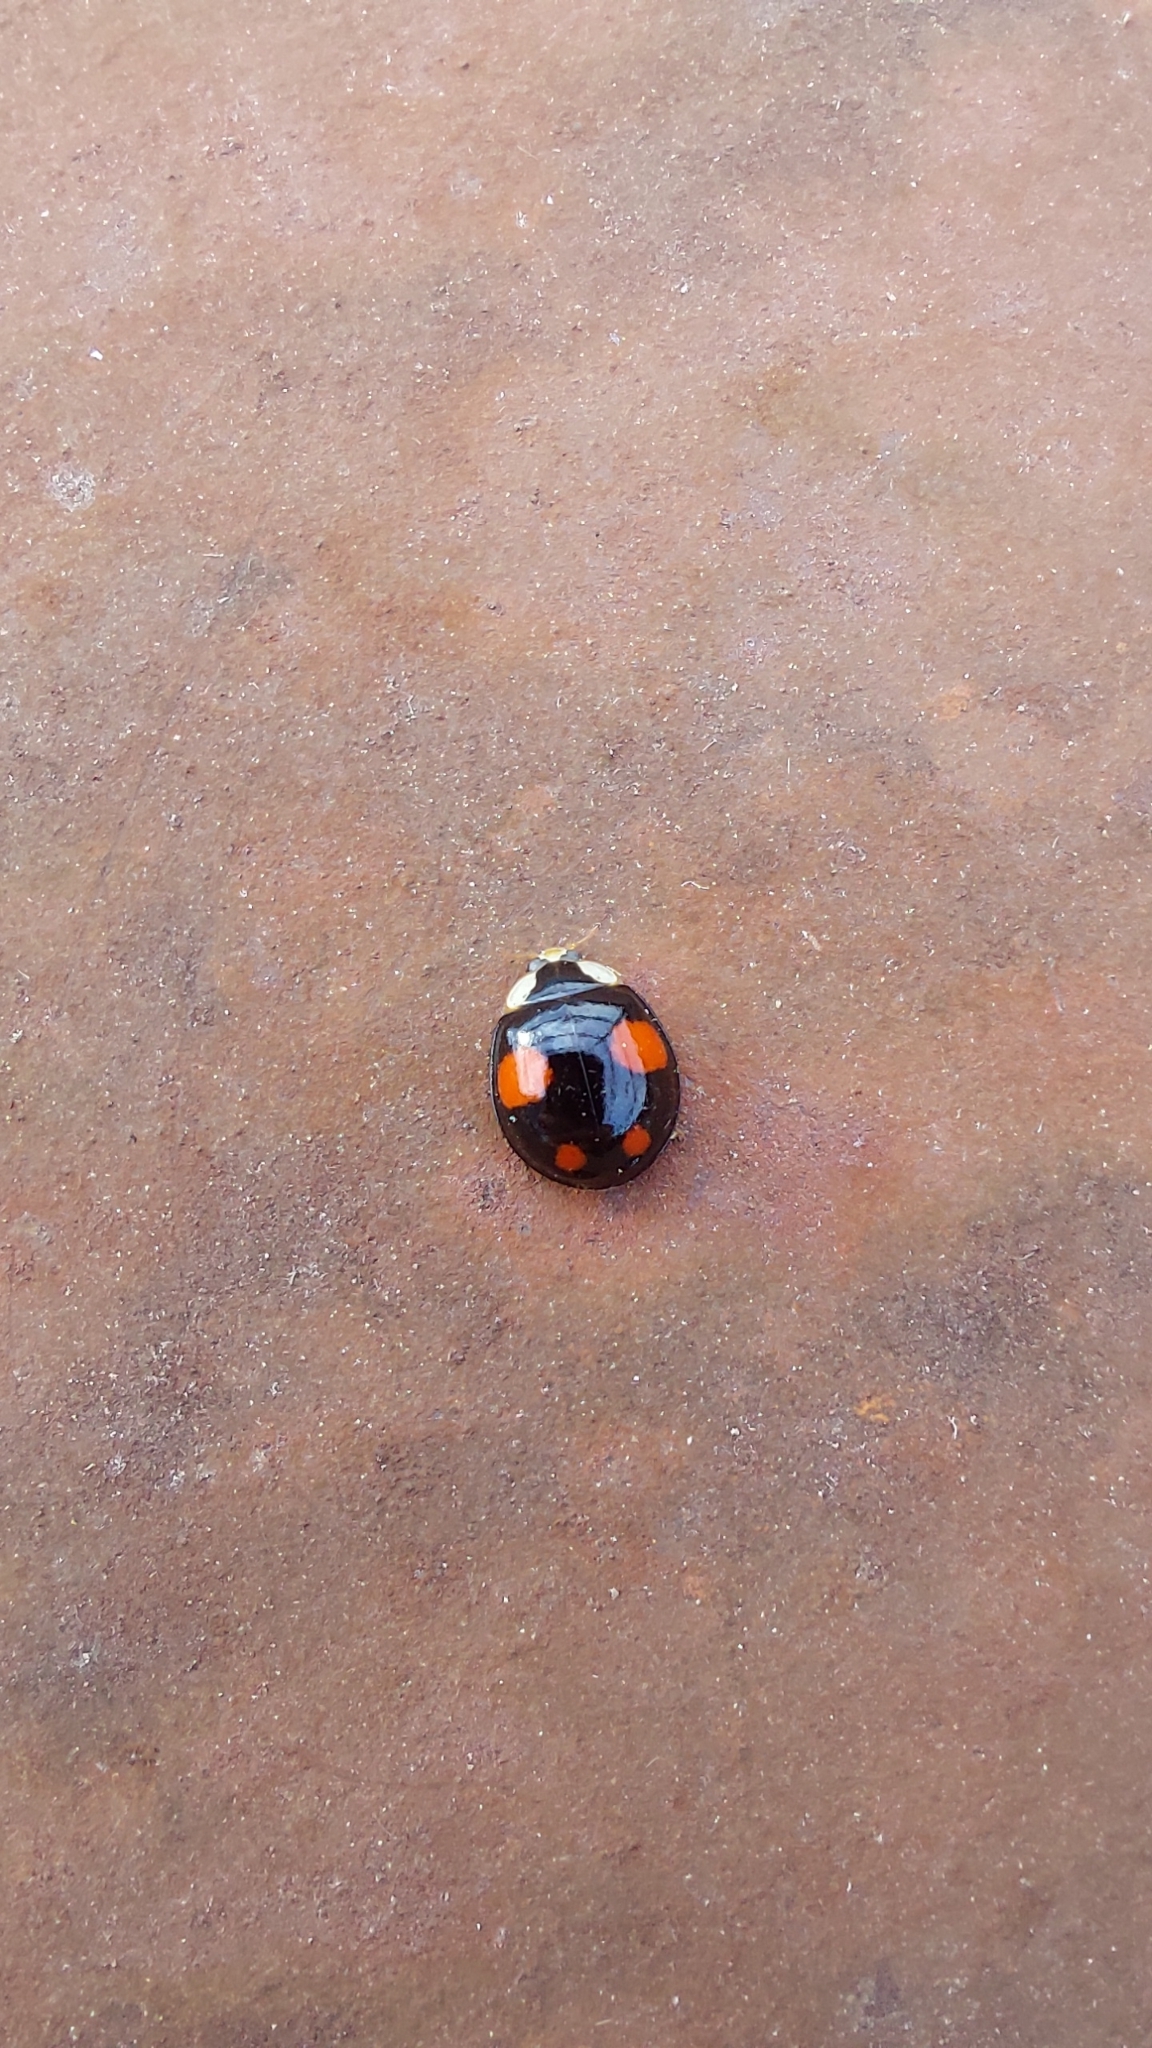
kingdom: Animalia
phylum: Arthropoda
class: Insecta
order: Coleoptera
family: Coccinellidae
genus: Harmonia
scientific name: Harmonia axyridis
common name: Harlequin ladybird
